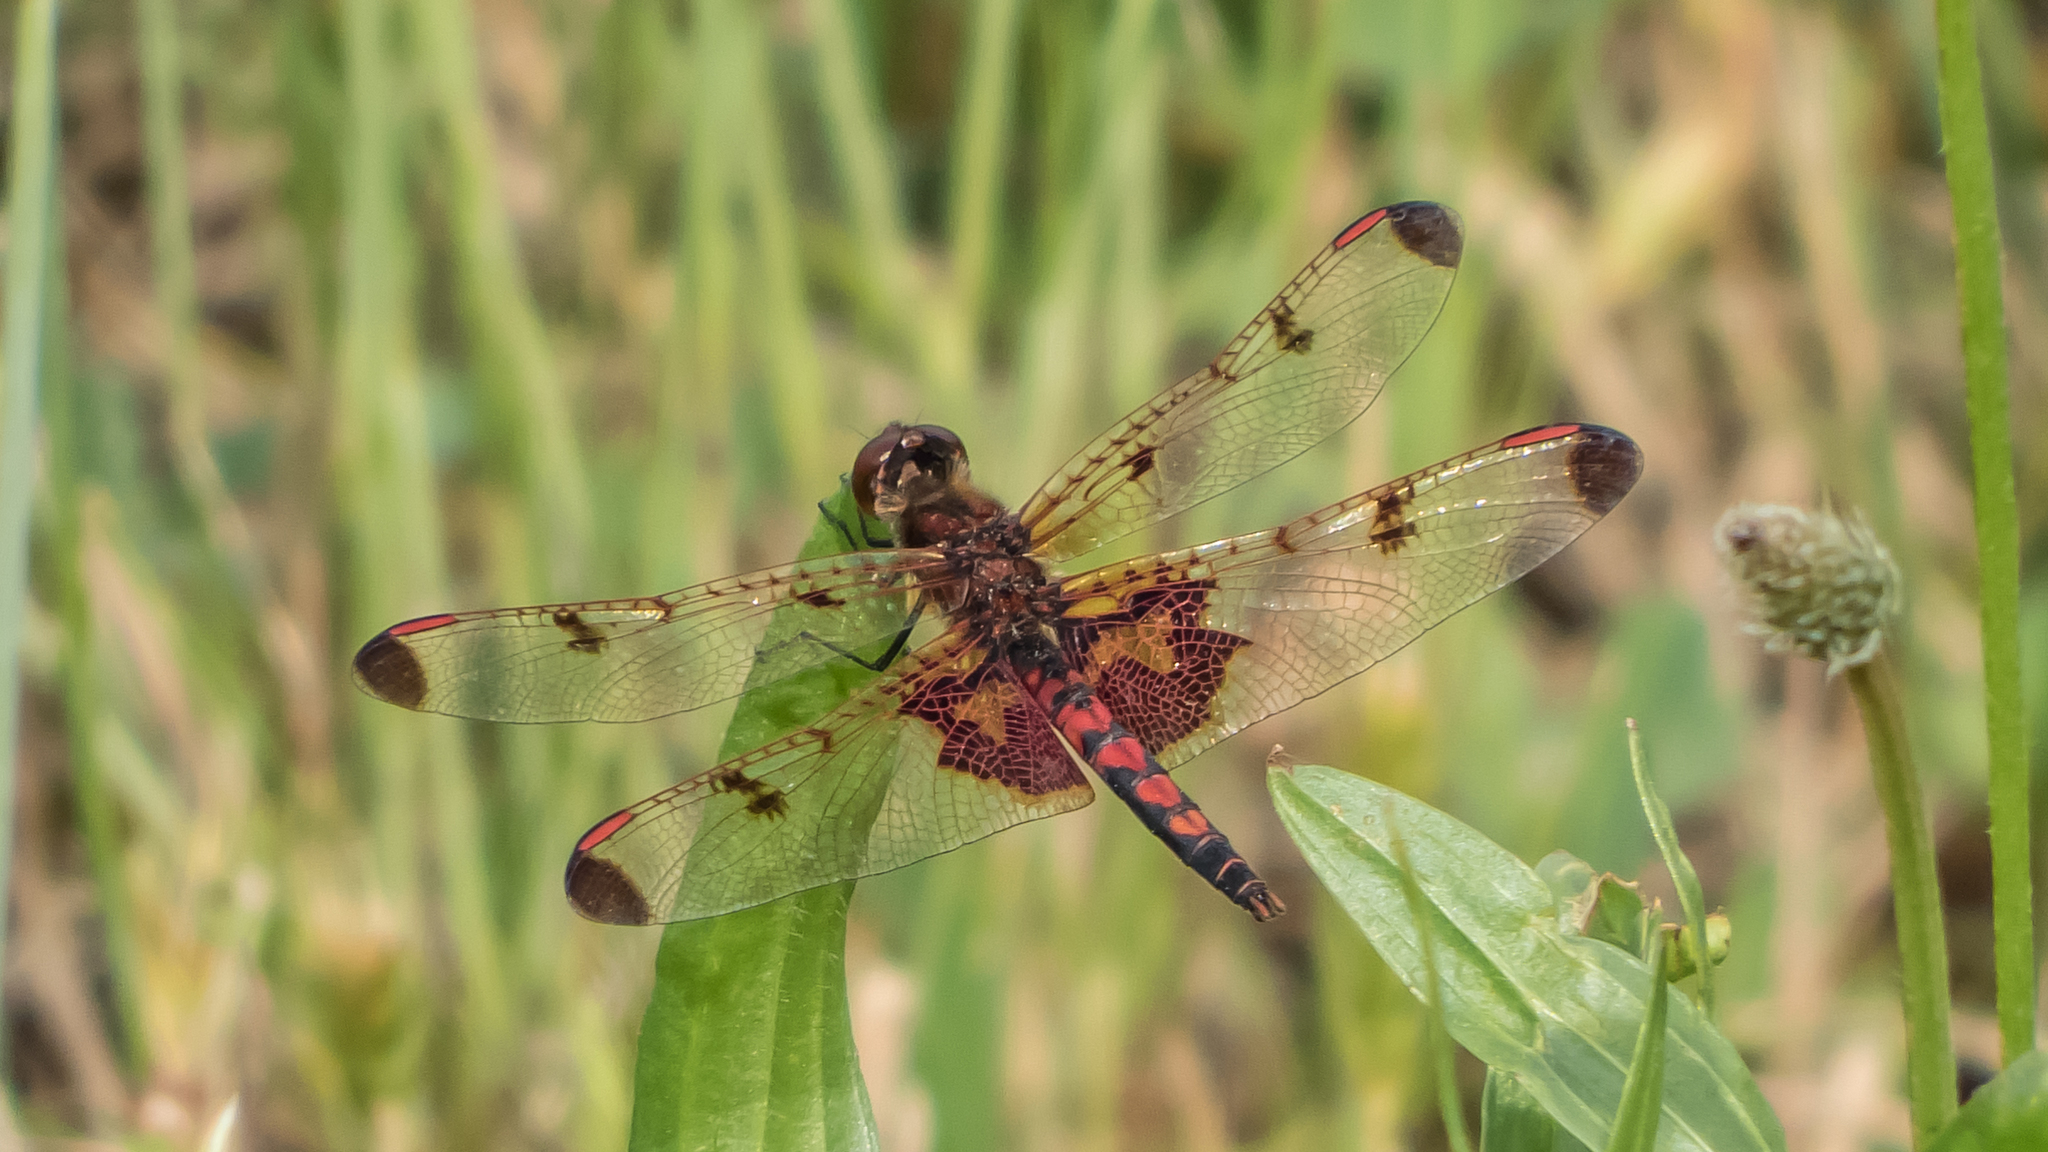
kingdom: Animalia
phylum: Arthropoda
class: Insecta
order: Odonata
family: Libellulidae
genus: Celithemis
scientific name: Celithemis elisa
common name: Calico pennant
